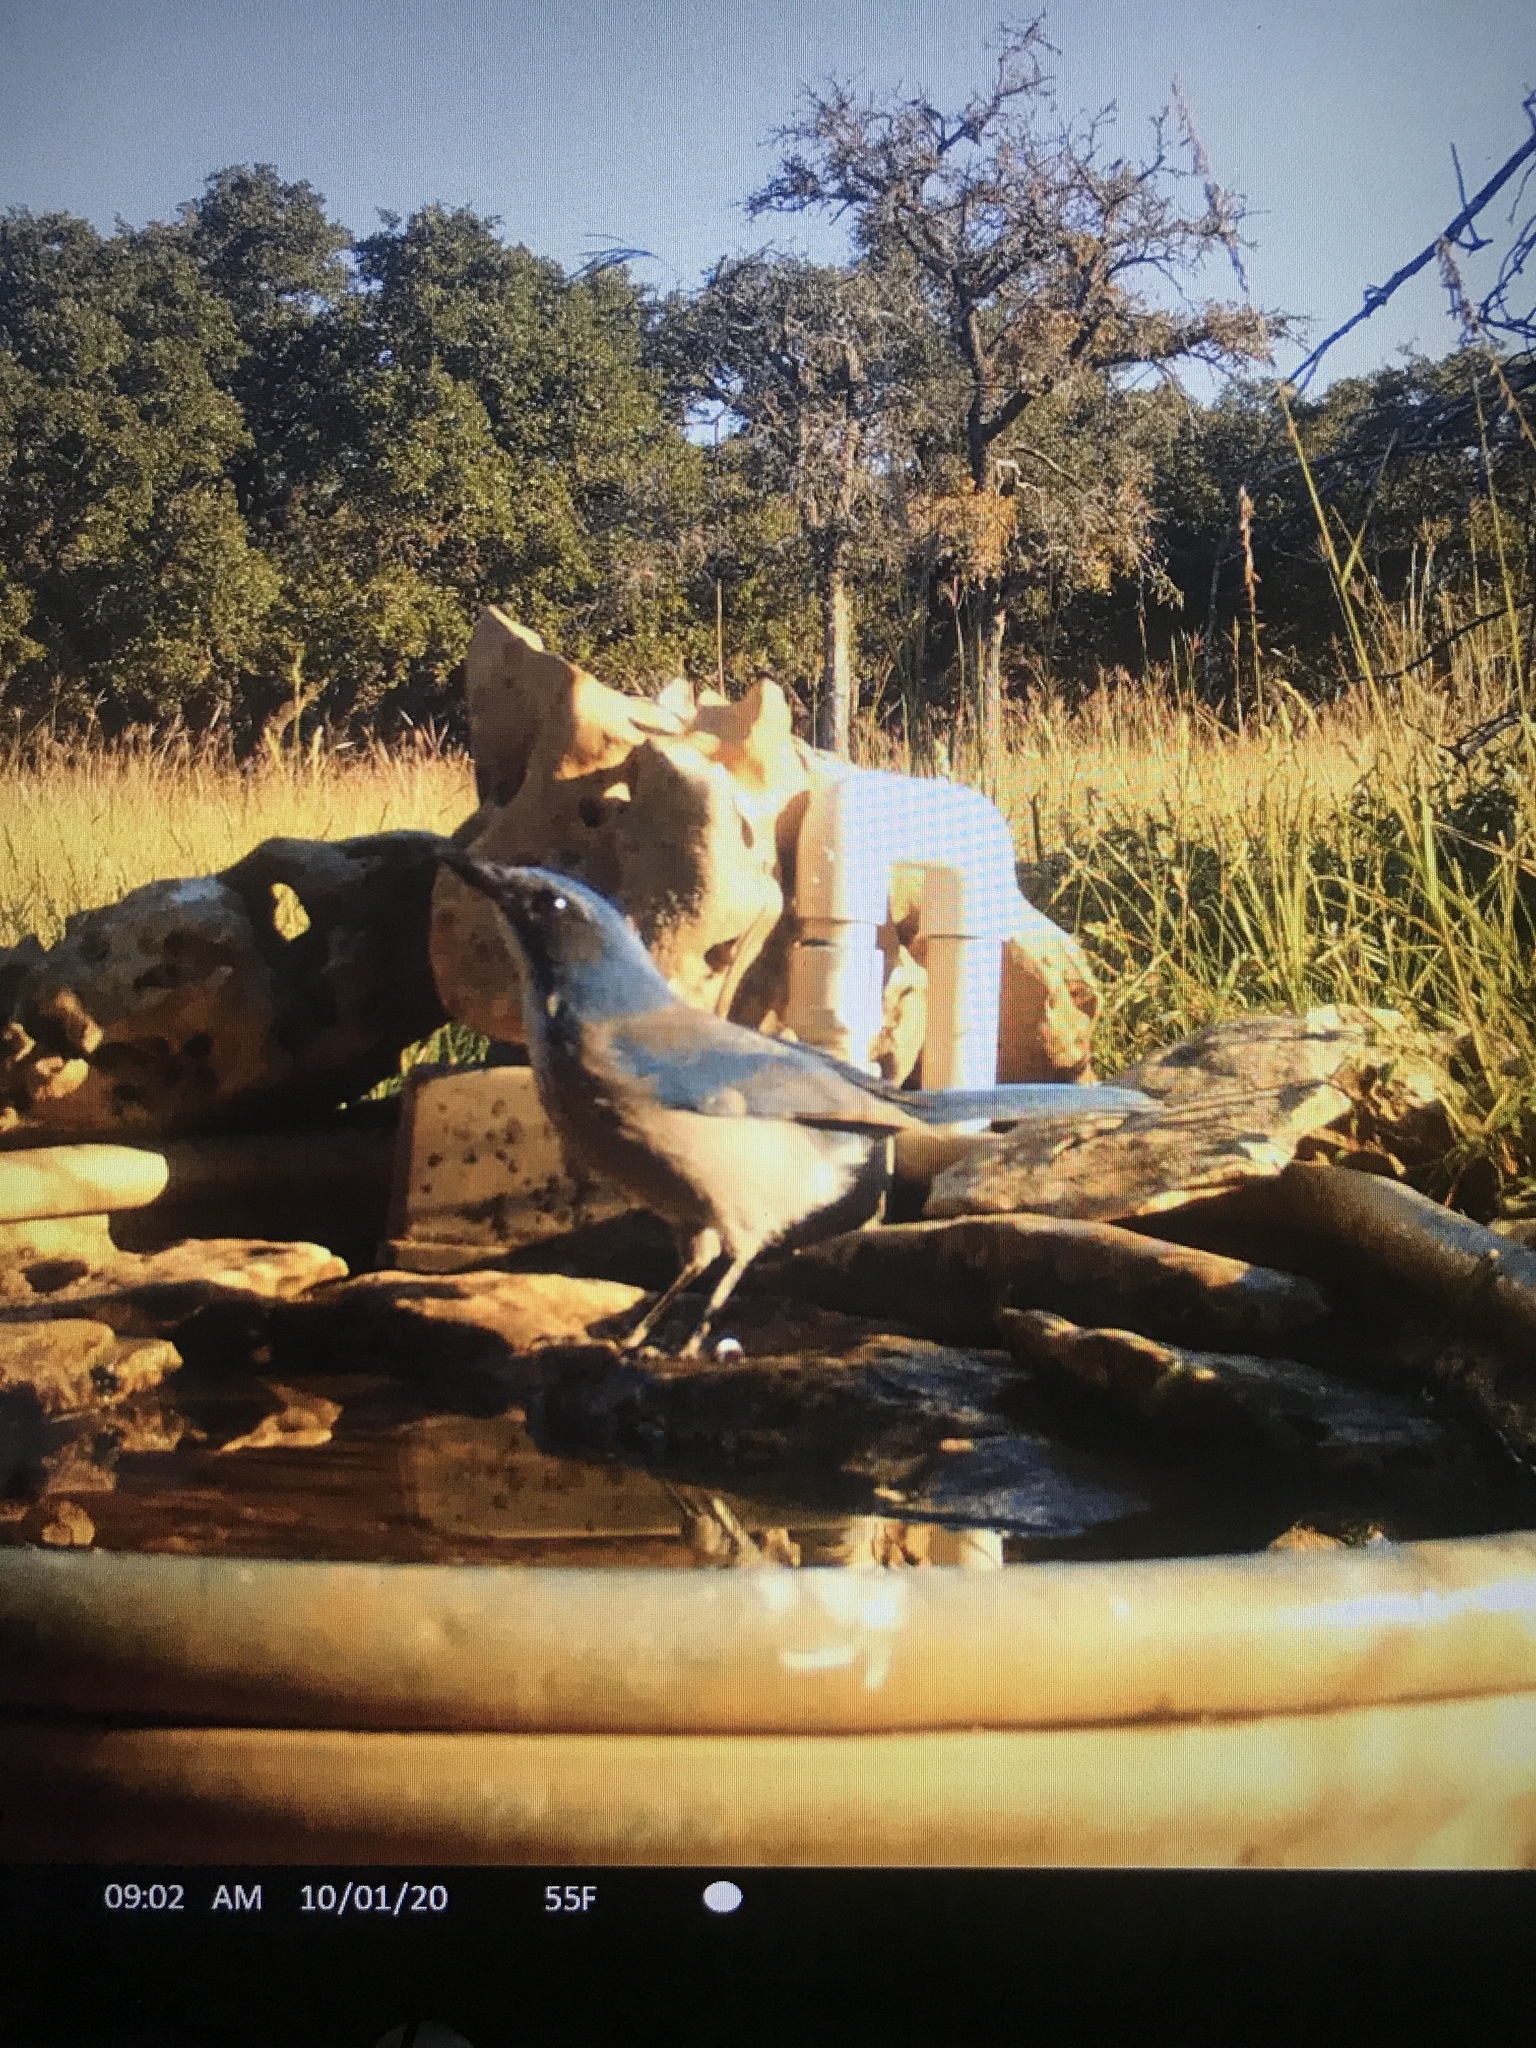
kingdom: Animalia
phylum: Chordata
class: Aves
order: Passeriformes
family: Corvidae
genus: Aphelocoma
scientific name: Aphelocoma woodhouseii
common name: Woodhouse's scrub-jay
